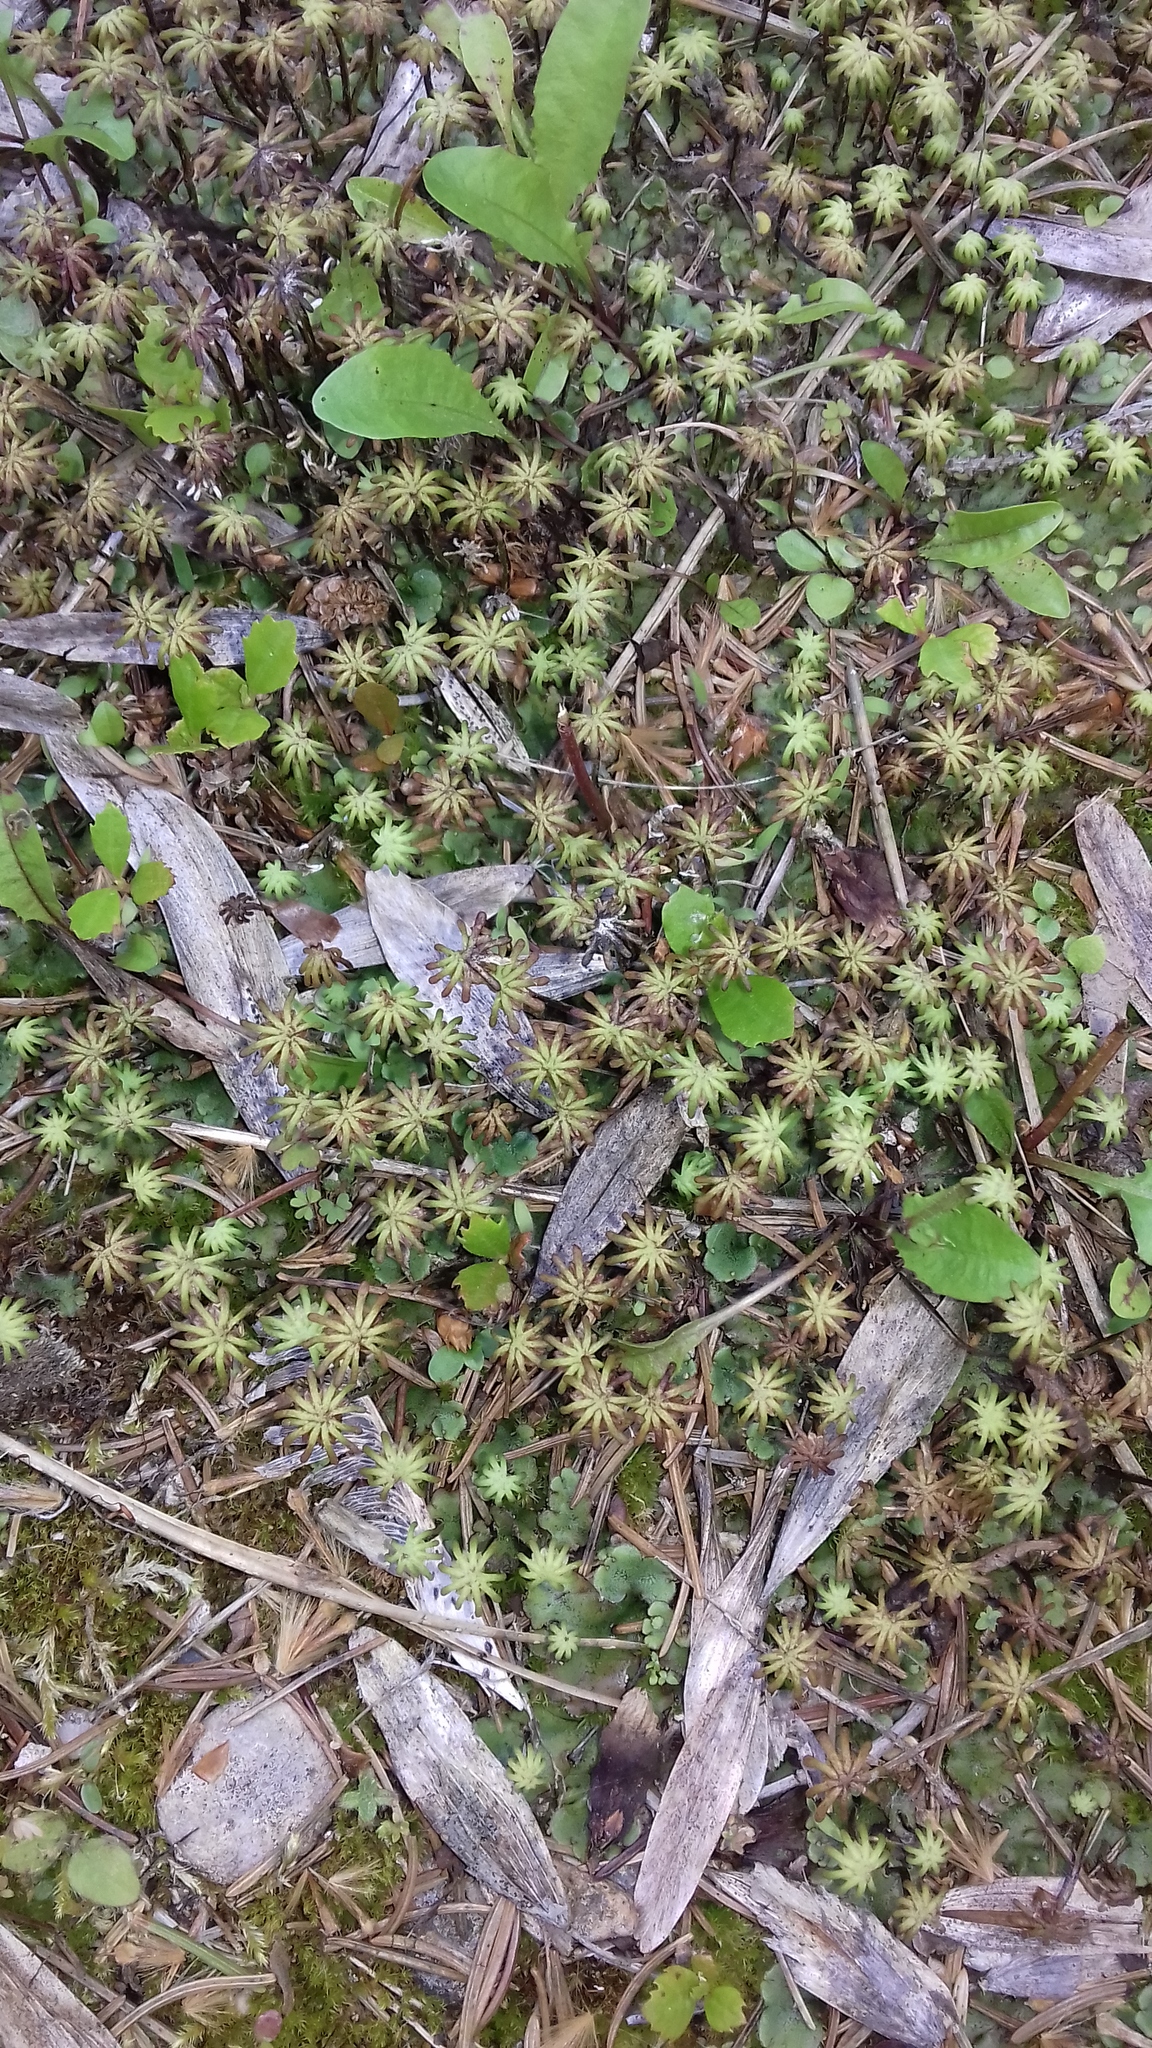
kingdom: Plantae
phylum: Marchantiophyta
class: Marchantiopsida
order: Marchantiales
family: Marchantiaceae
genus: Marchantia
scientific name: Marchantia polymorpha
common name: Common liverwort
